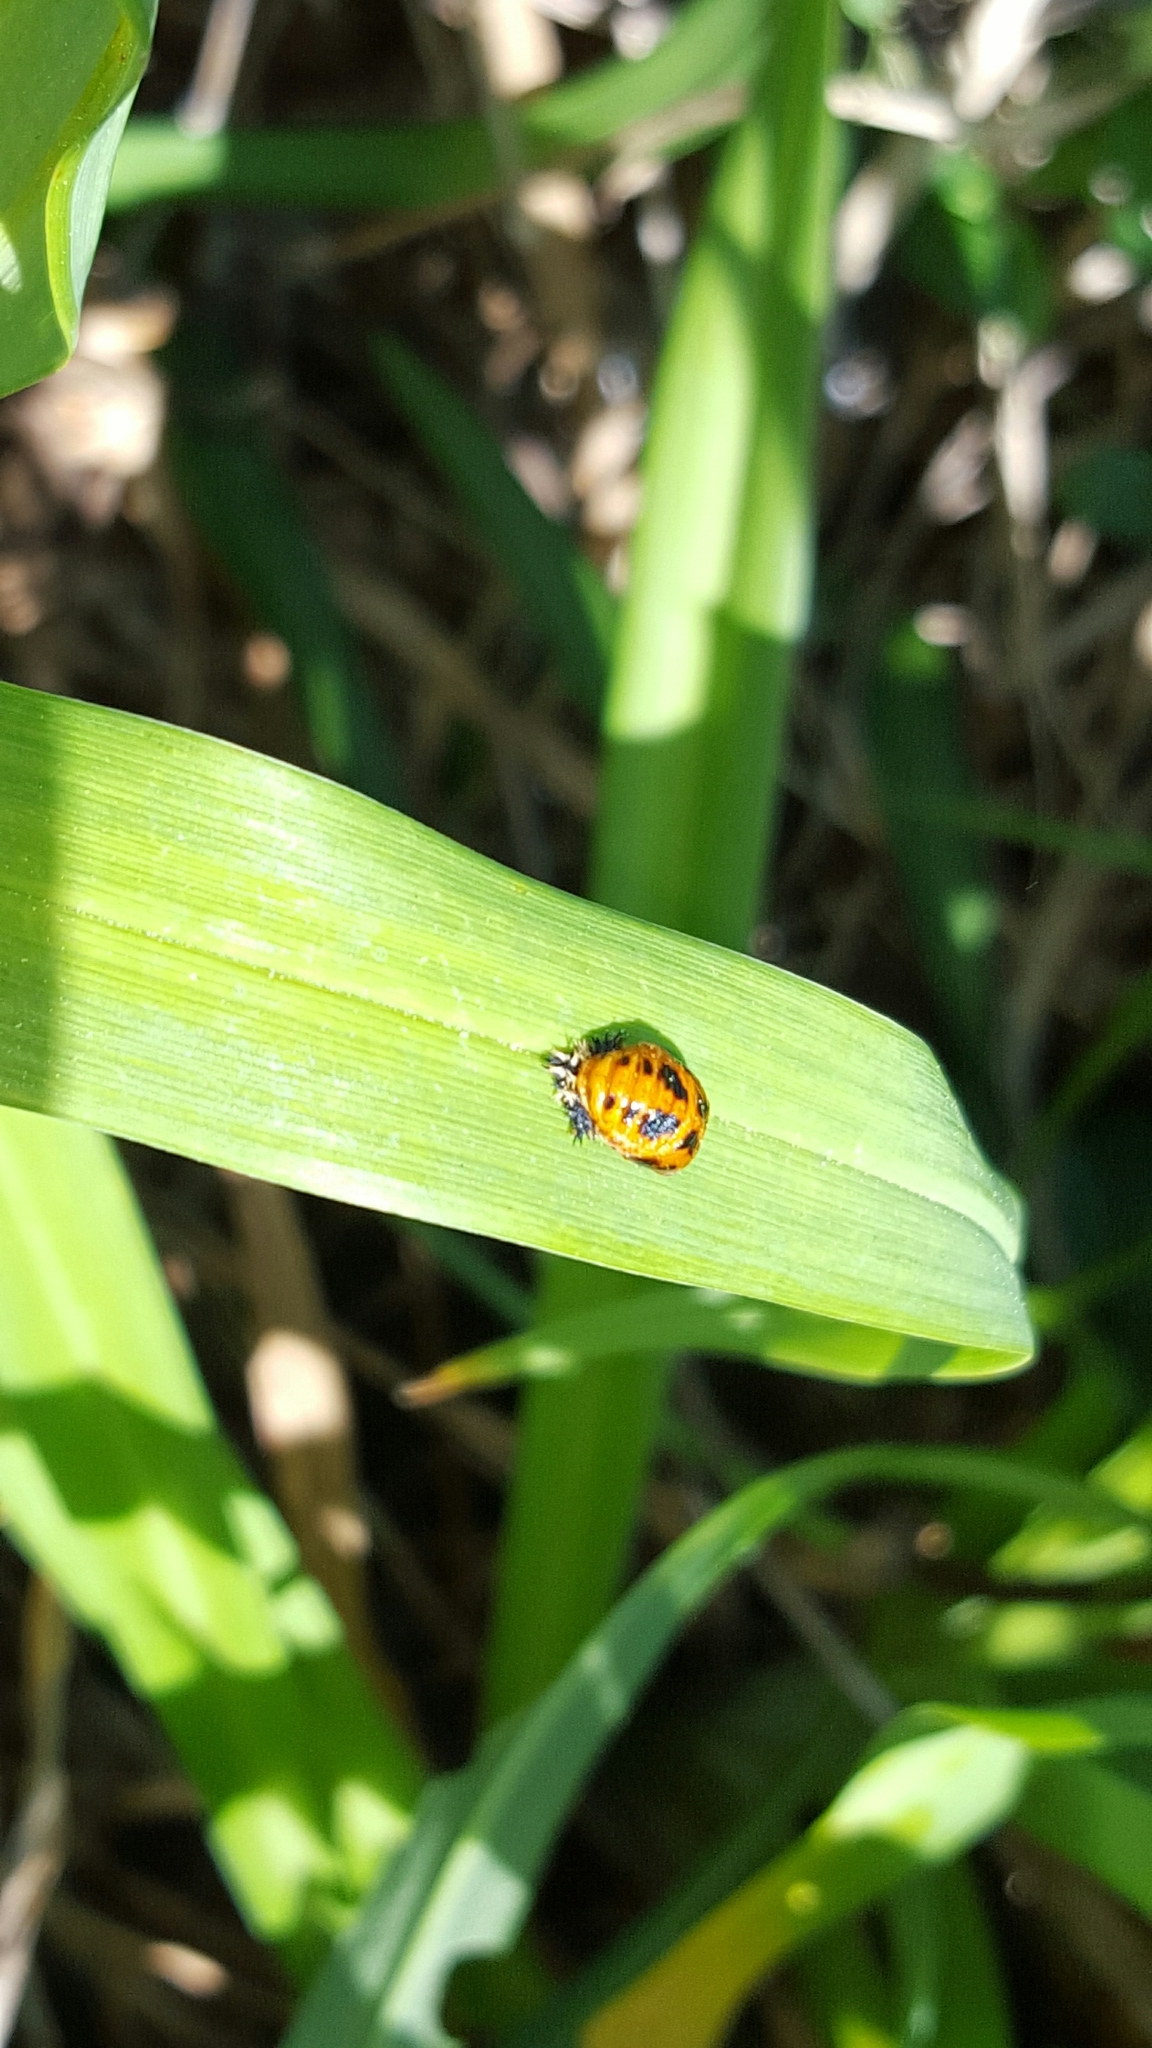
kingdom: Animalia
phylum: Arthropoda
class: Insecta
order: Coleoptera
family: Coccinellidae
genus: Harmonia
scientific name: Harmonia axyridis
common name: Harlequin ladybird
